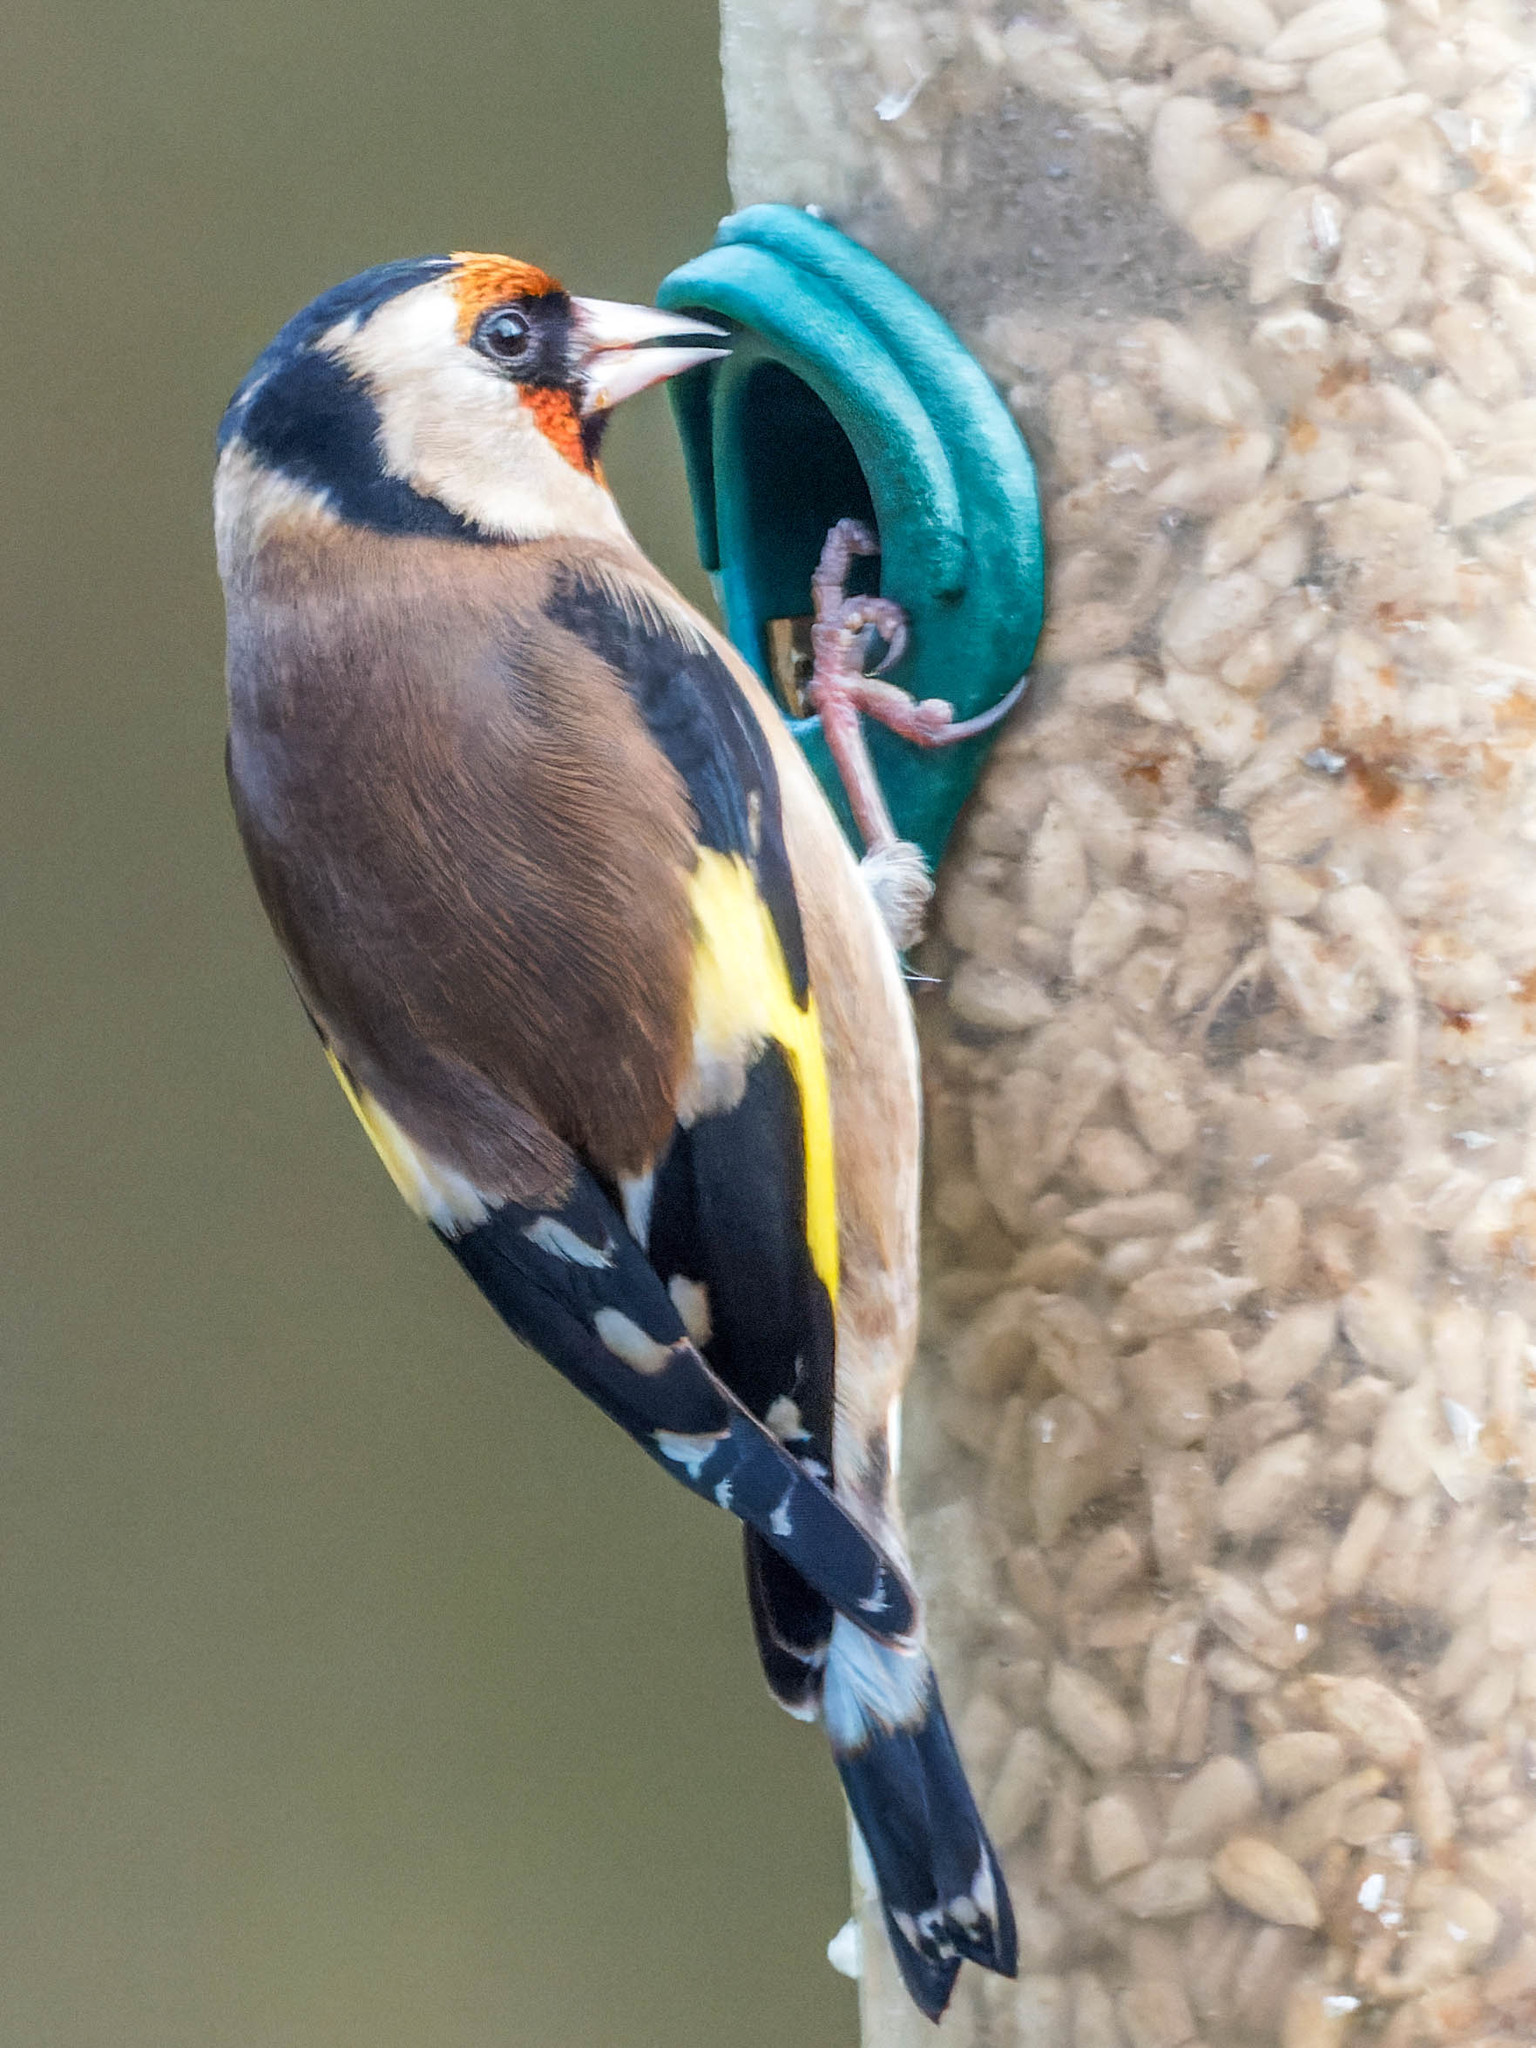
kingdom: Animalia
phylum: Chordata
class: Aves
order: Passeriformes
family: Fringillidae
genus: Carduelis
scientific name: Carduelis carduelis
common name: European goldfinch
